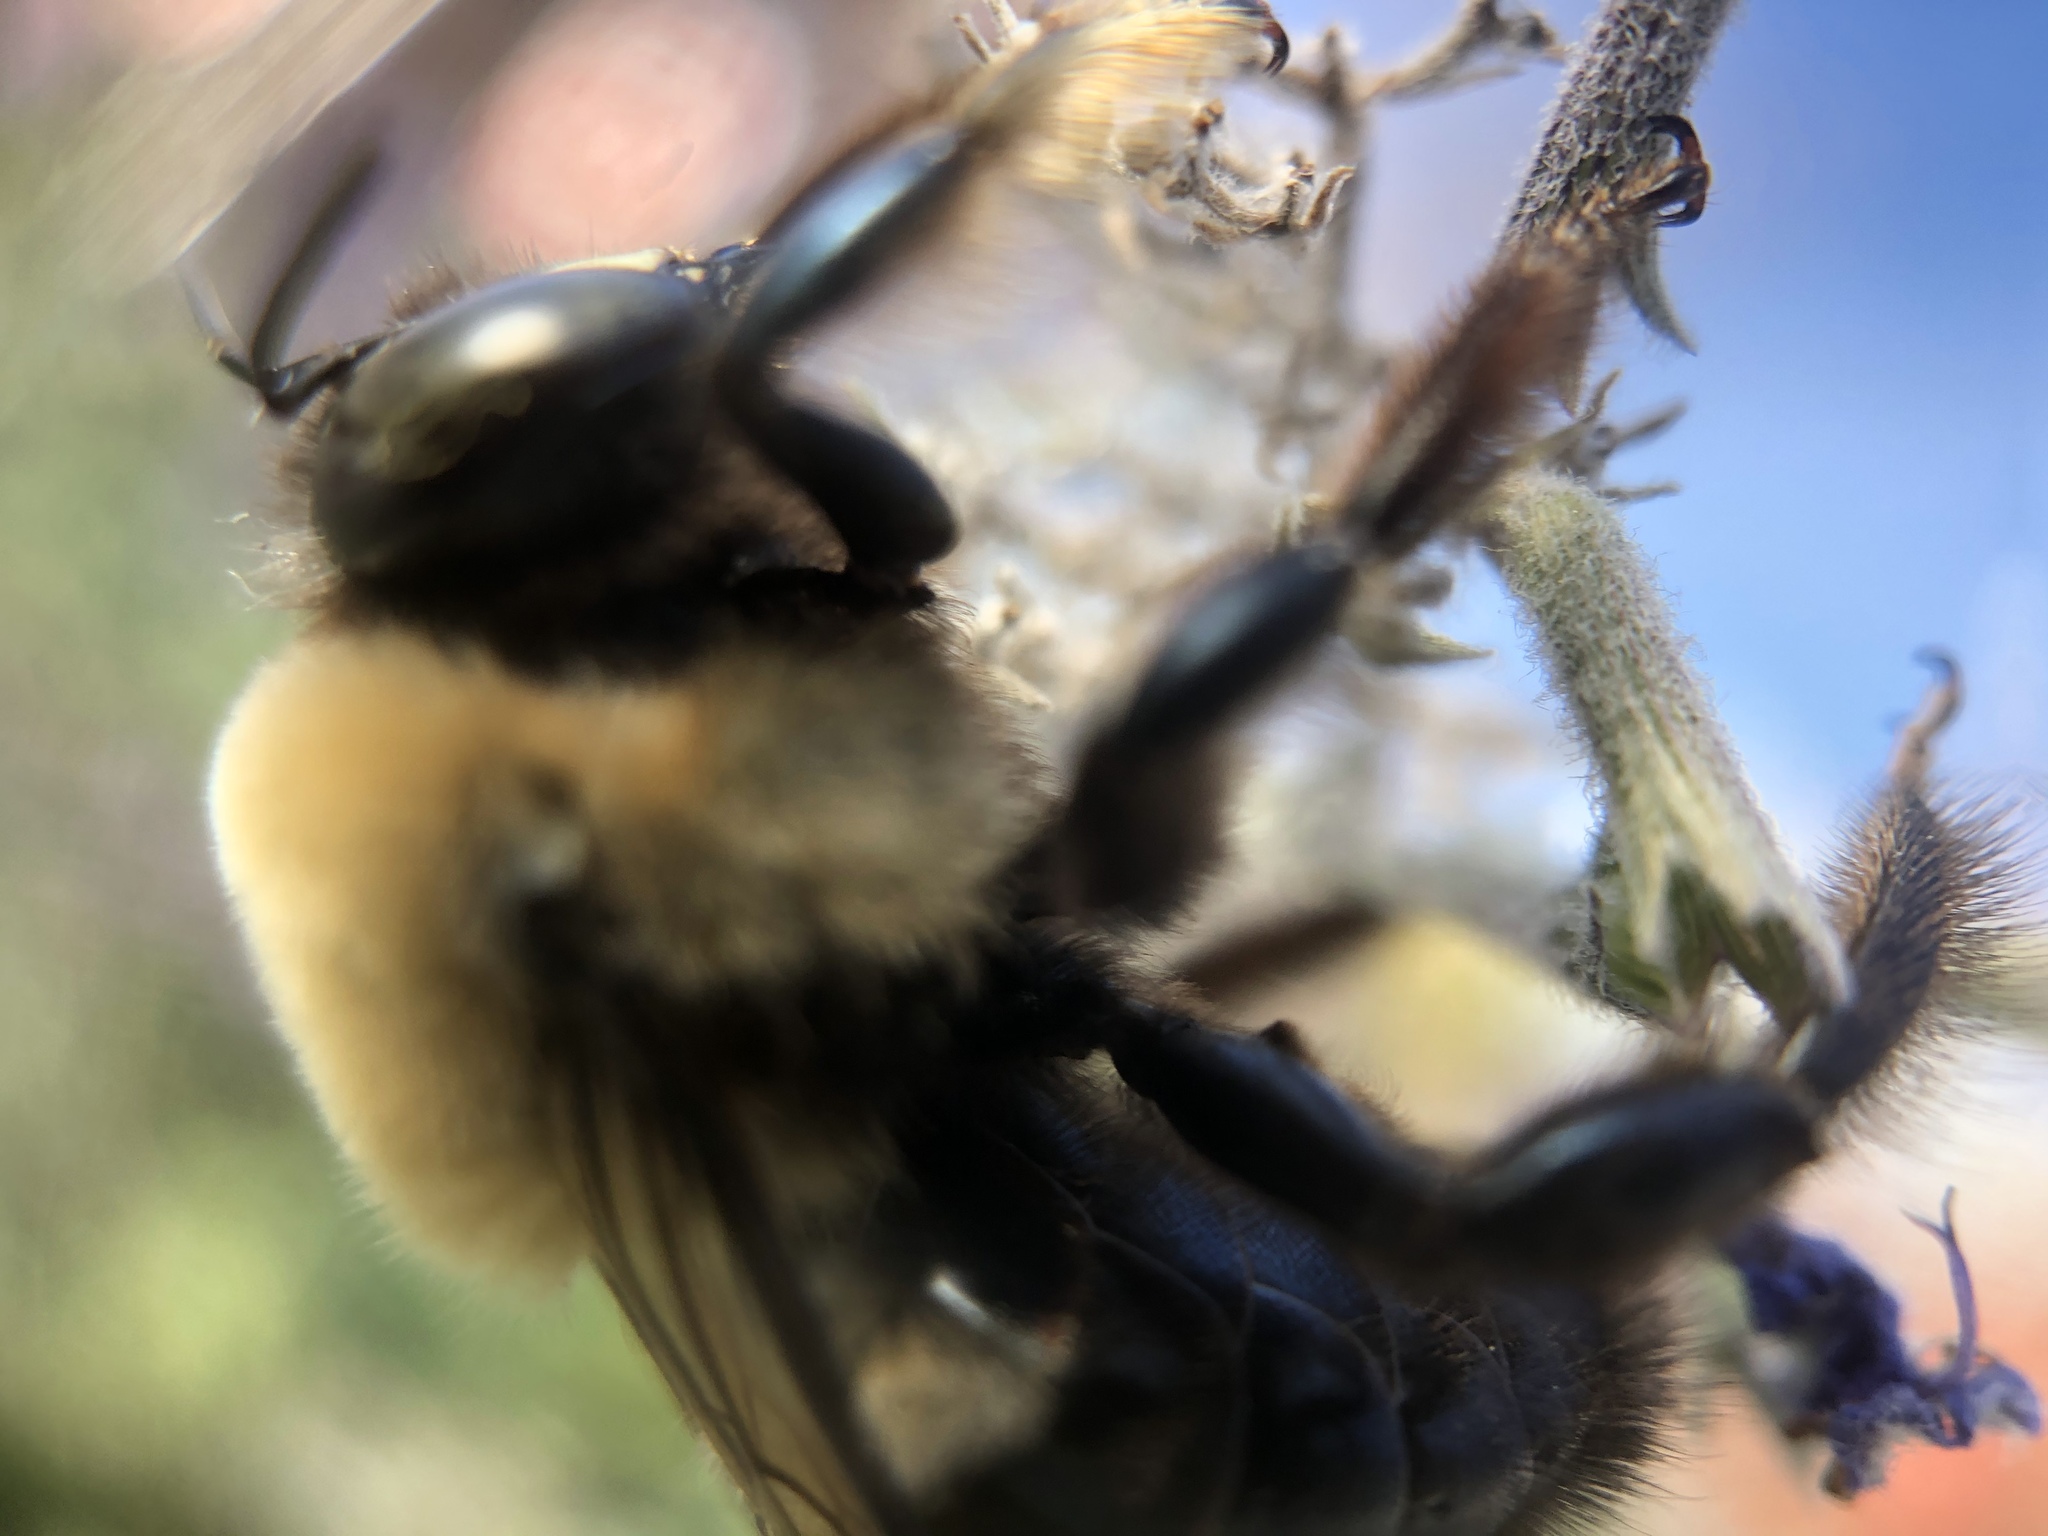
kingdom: Animalia
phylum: Arthropoda
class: Insecta
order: Hymenoptera
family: Apidae
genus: Xylocopa
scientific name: Xylocopa virginica
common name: Carpenter bee
